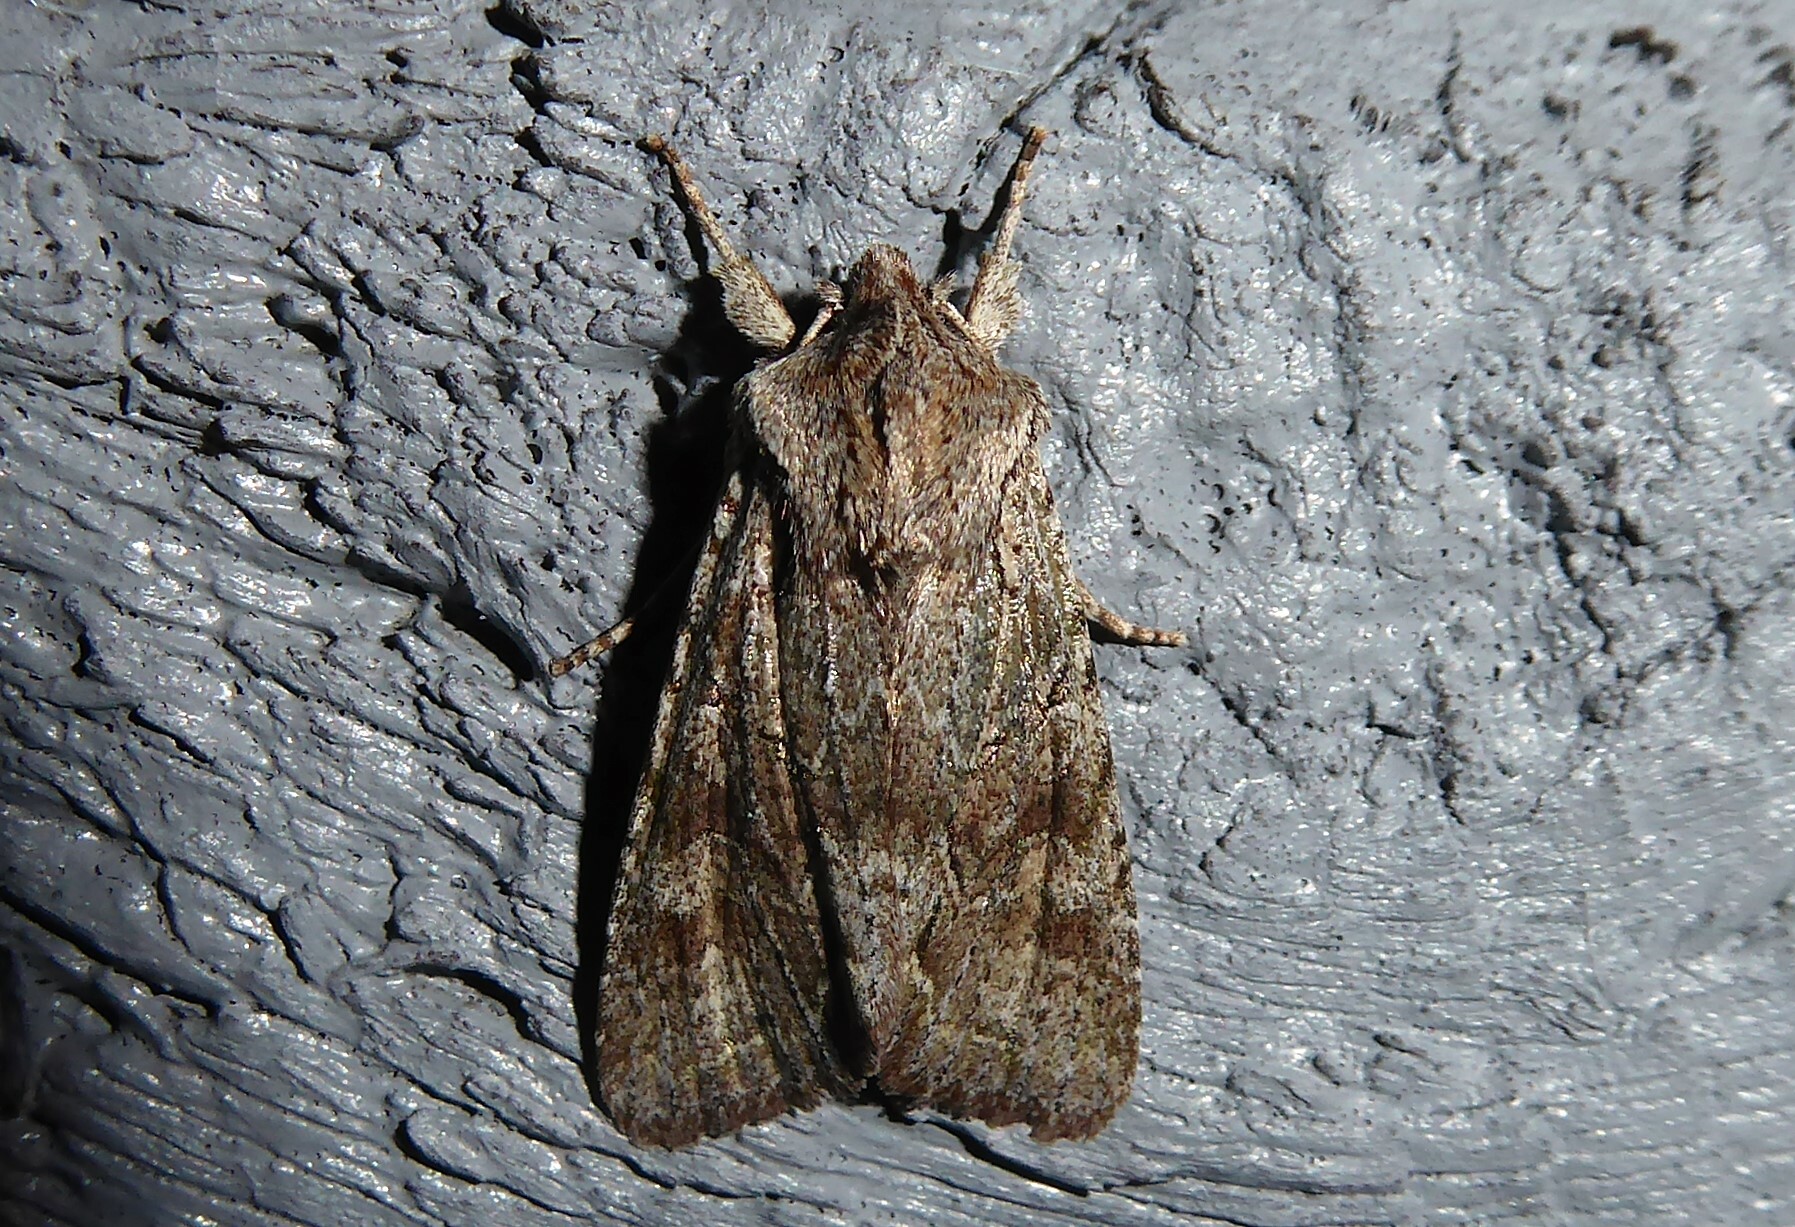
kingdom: Animalia
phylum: Arthropoda
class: Insecta
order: Lepidoptera
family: Noctuidae
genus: Ichneutica
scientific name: Ichneutica mutans
